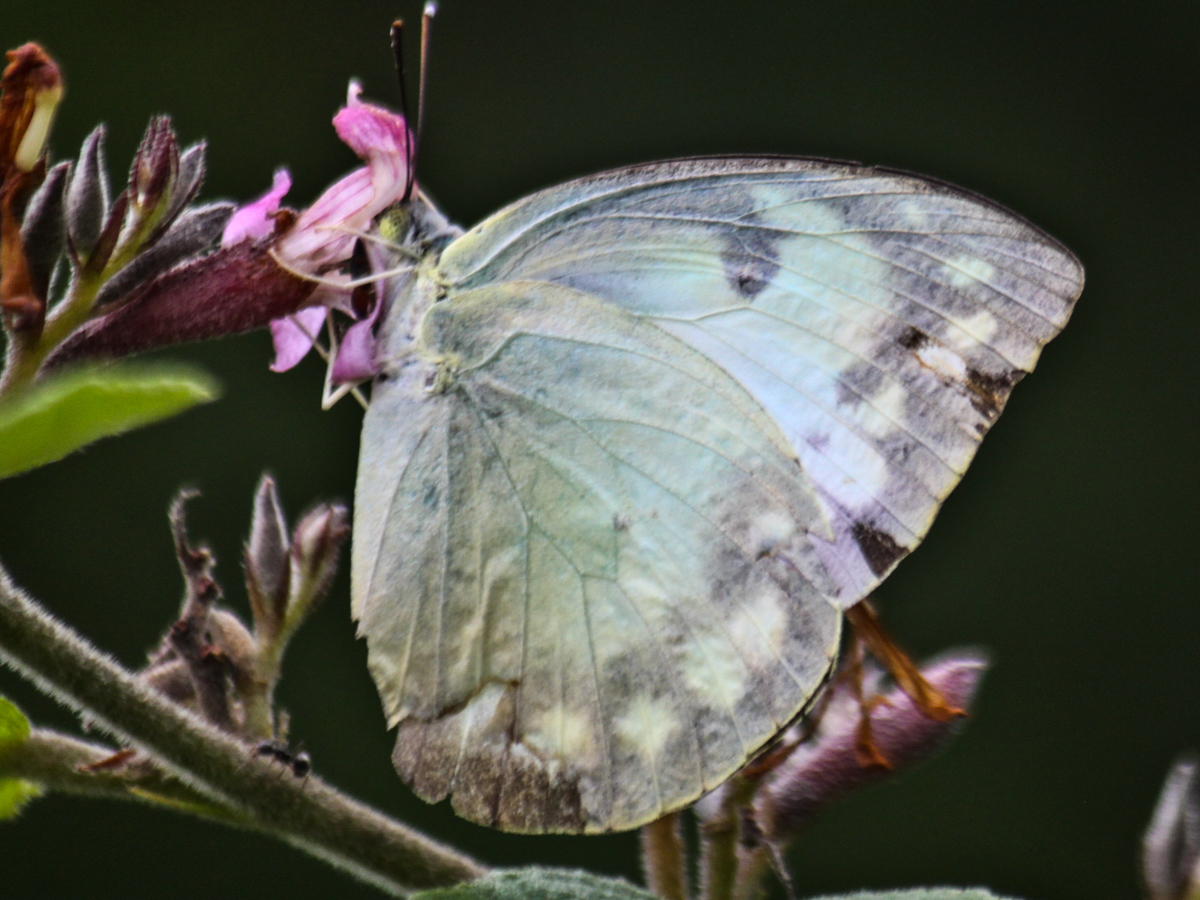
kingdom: Animalia
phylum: Arthropoda
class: Insecta
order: Lepidoptera
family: Pieridae
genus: Catopsilia
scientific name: Catopsilia pomona
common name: Common emigrant
